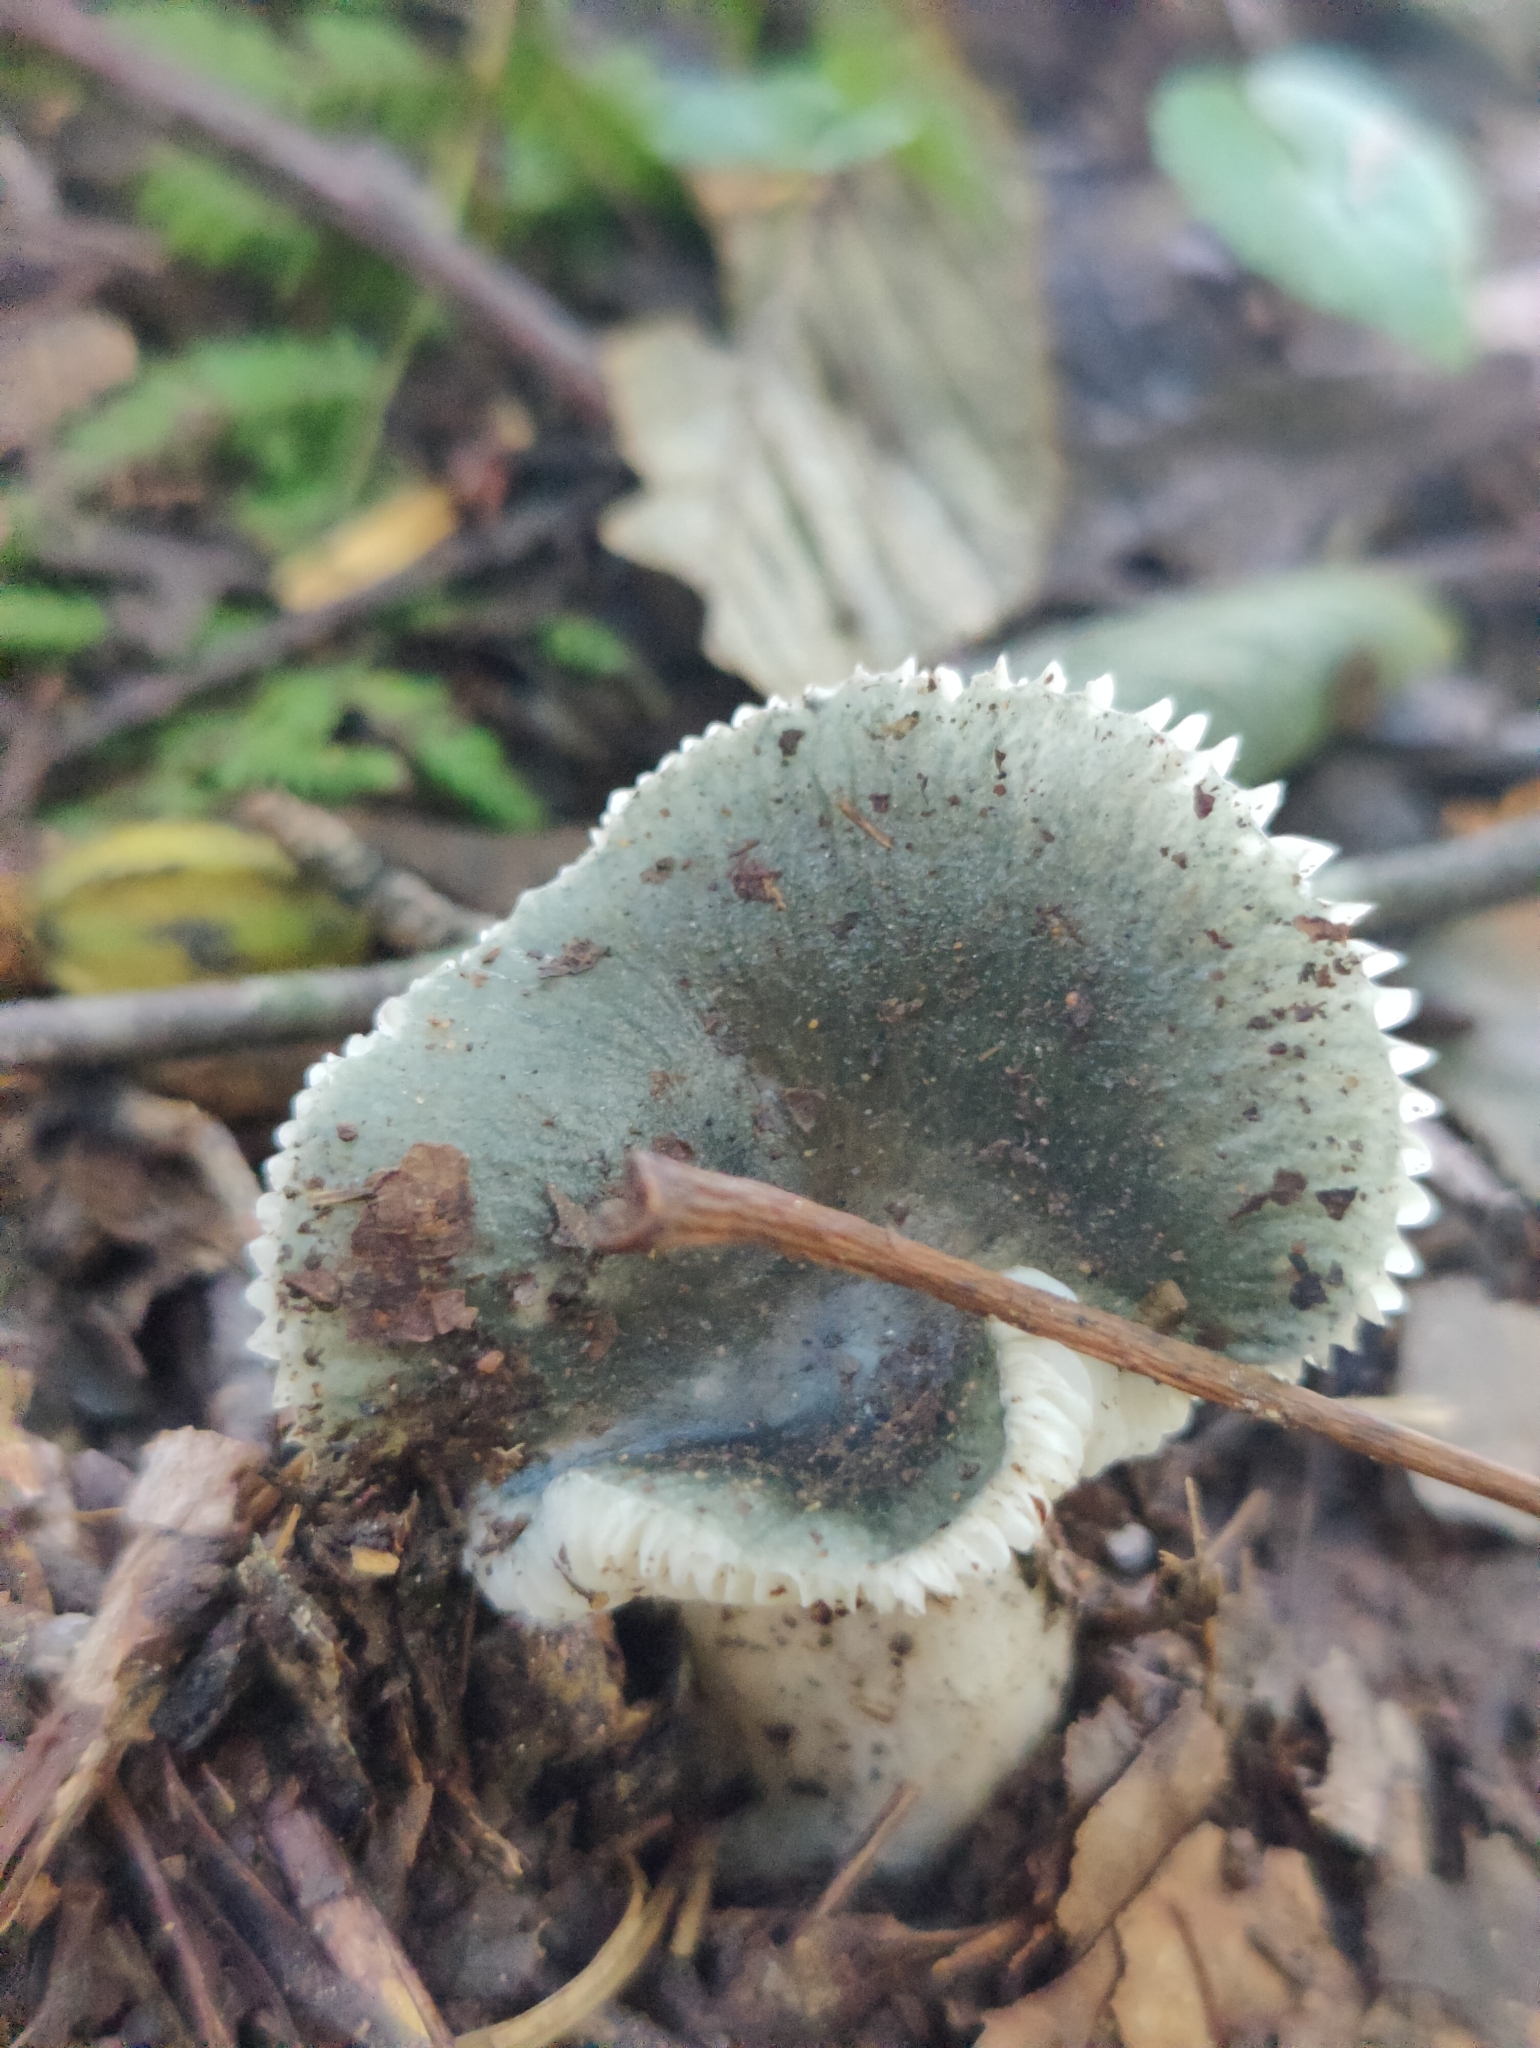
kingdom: Fungi
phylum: Basidiomycota
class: Agaricomycetes
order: Russulales
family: Russulaceae
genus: Russula
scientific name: Russula crustosa
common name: Green quilt russula
